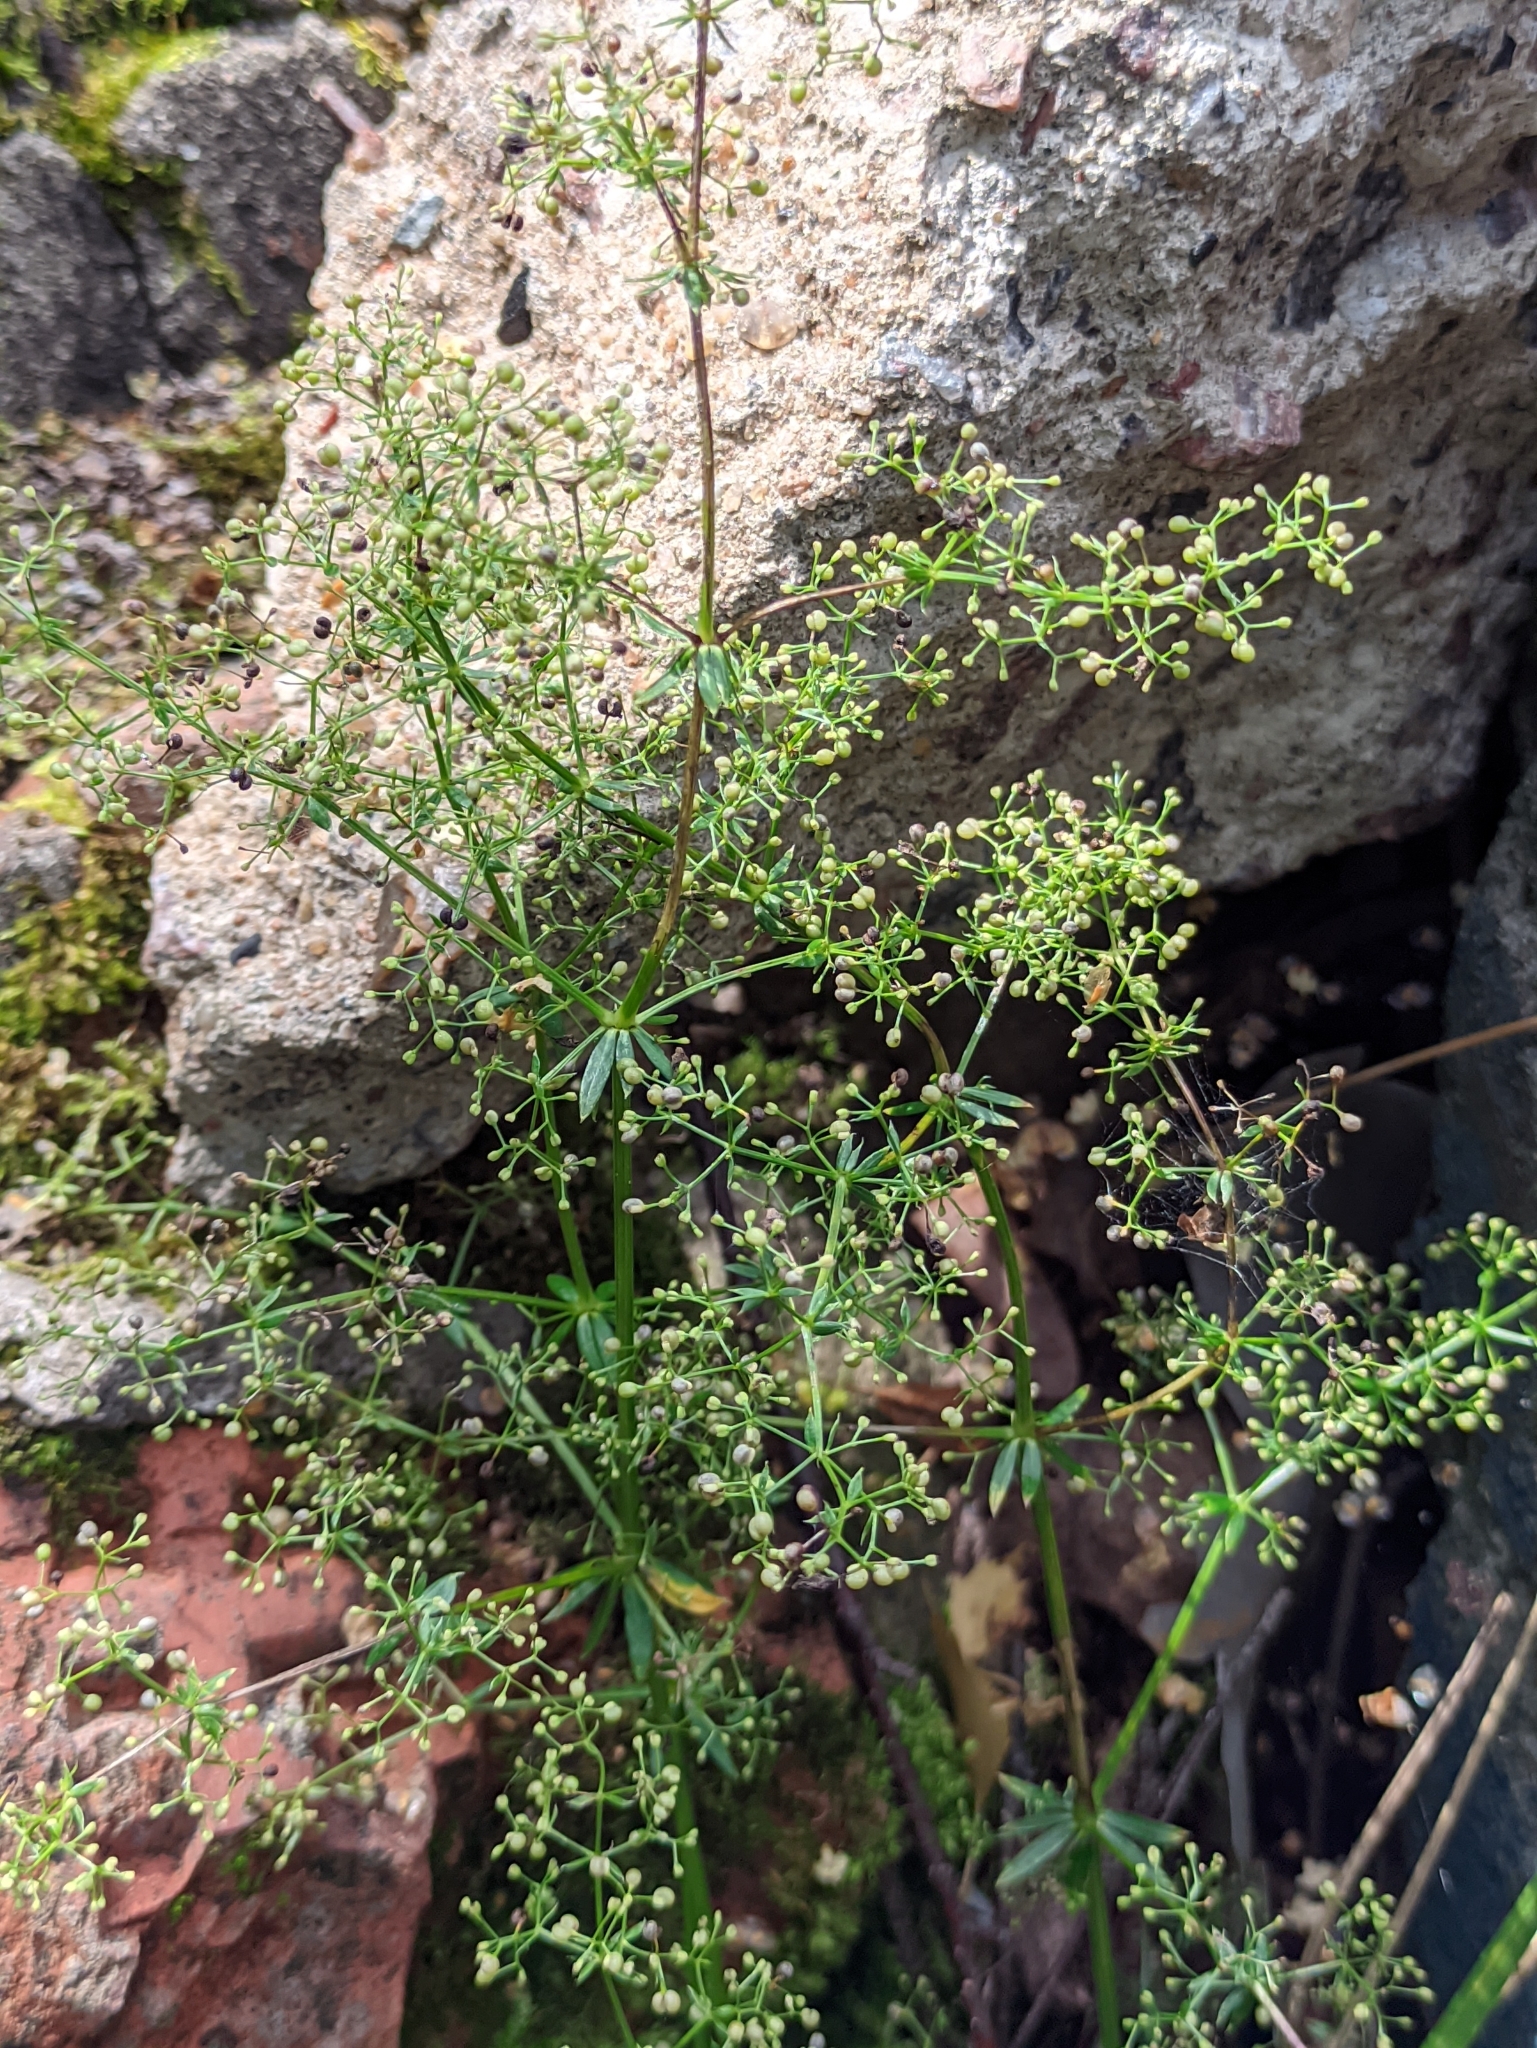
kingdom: Plantae
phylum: Tracheophyta
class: Magnoliopsida
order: Gentianales
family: Rubiaceae
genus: Galium
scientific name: Galium mollugo
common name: Hedge bedstraw
